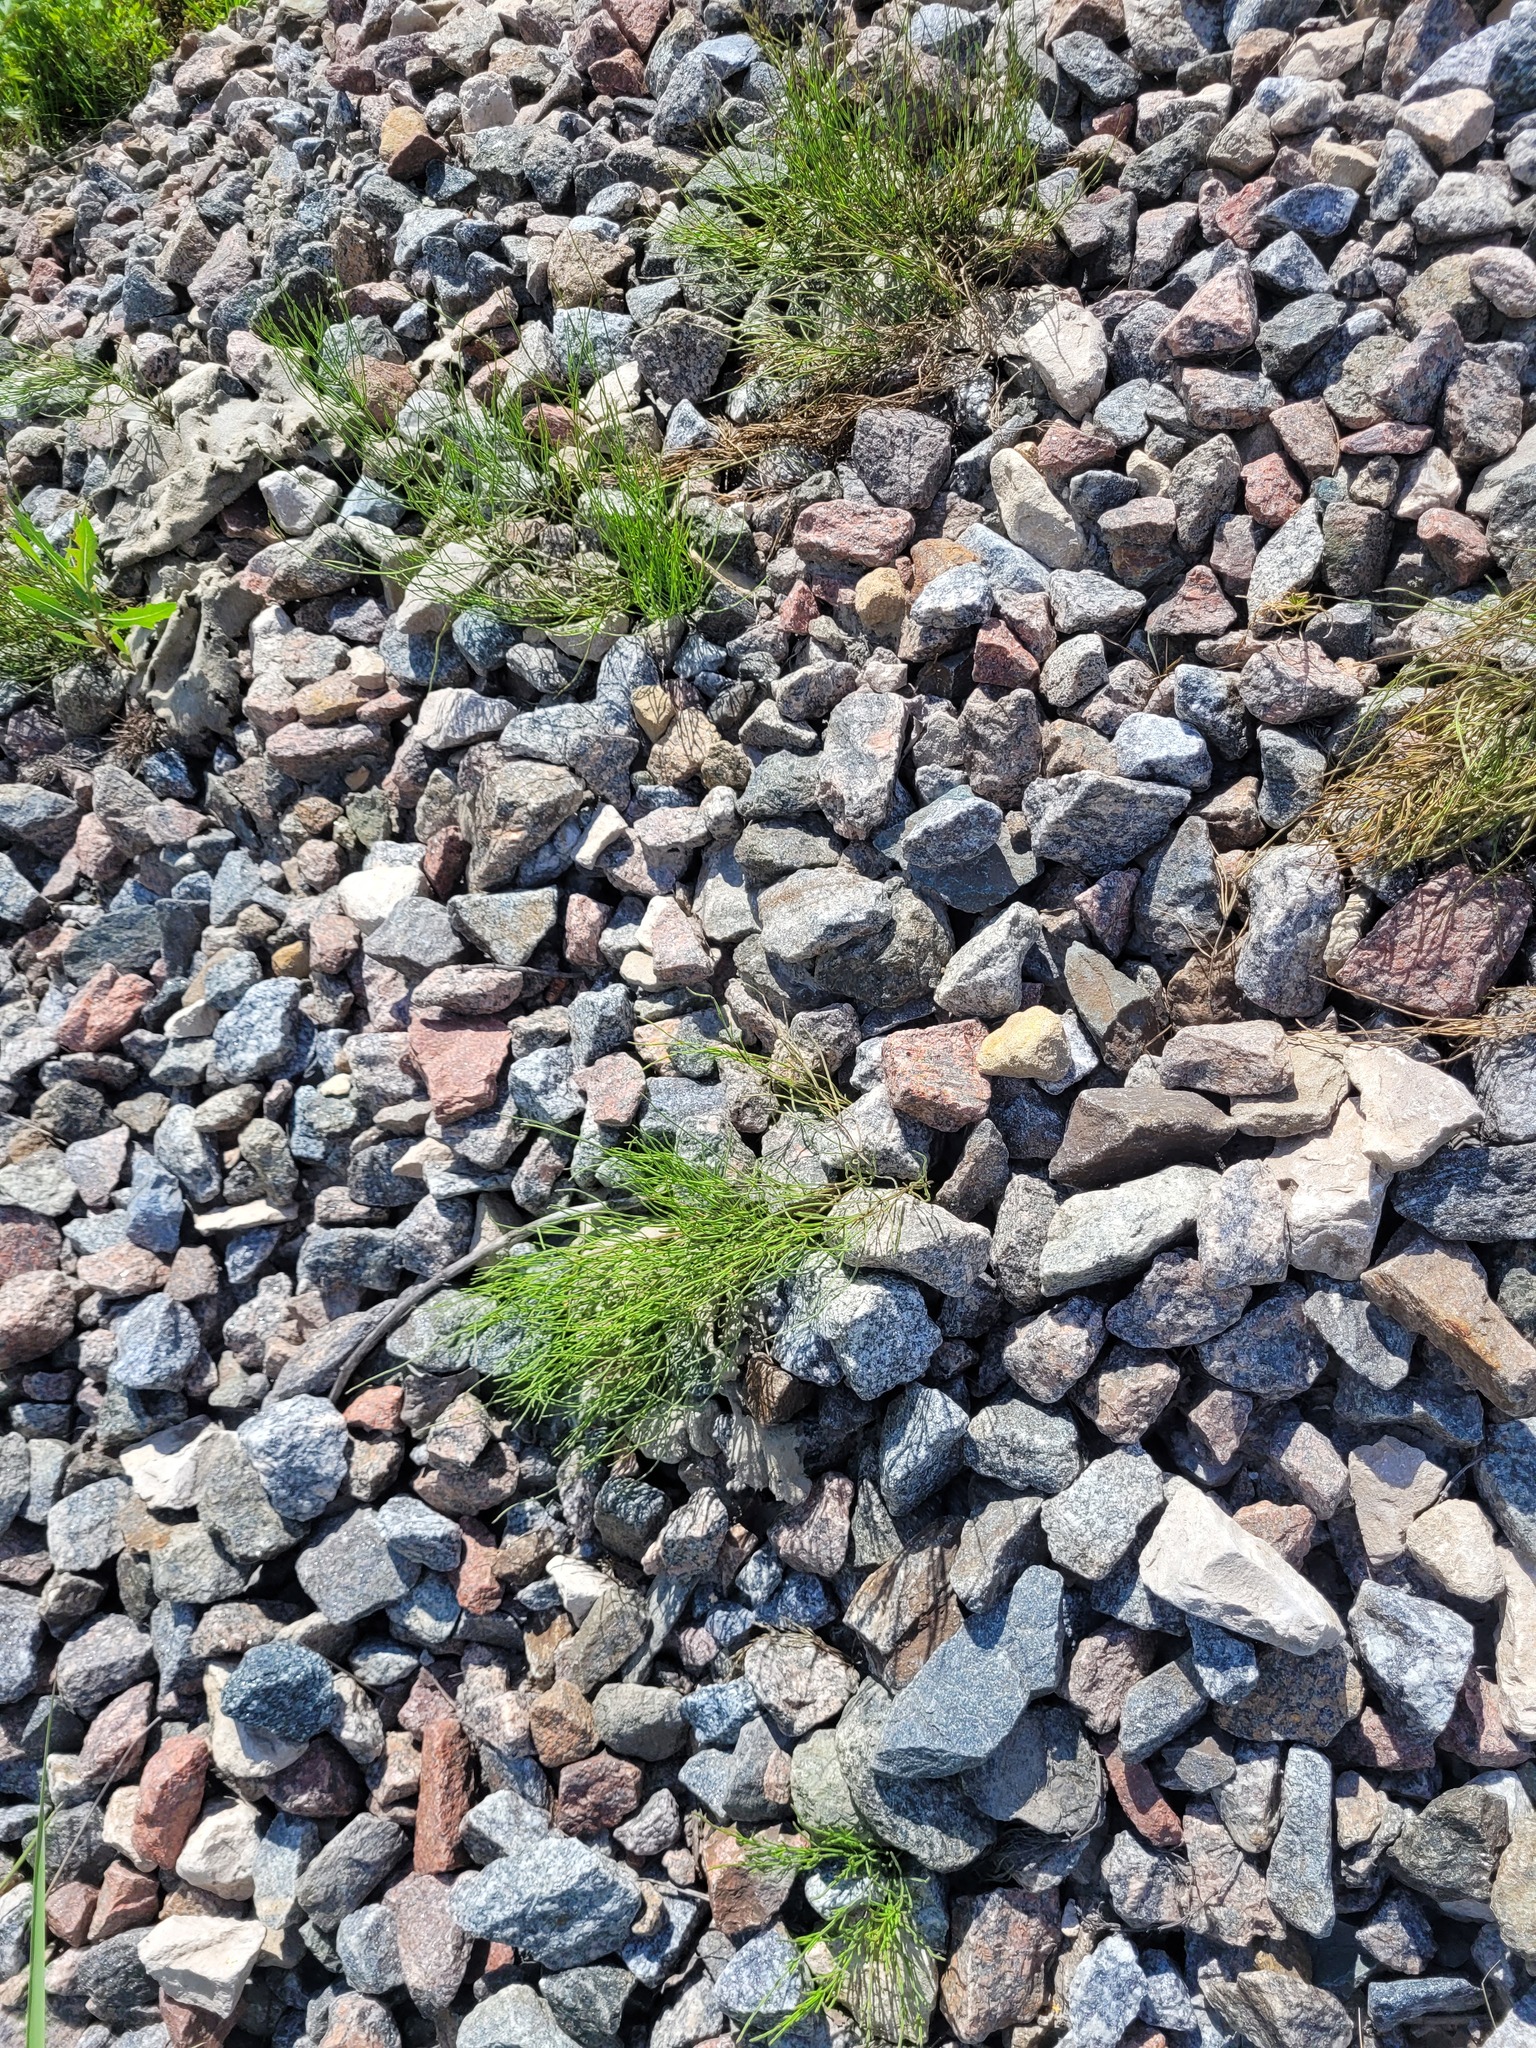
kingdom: Plantae
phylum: Tracheophyta
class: Polypodiopsida
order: Equisetales
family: Equisetaceae
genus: Equisetum
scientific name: Equisetum arvense
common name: Field horsetail
